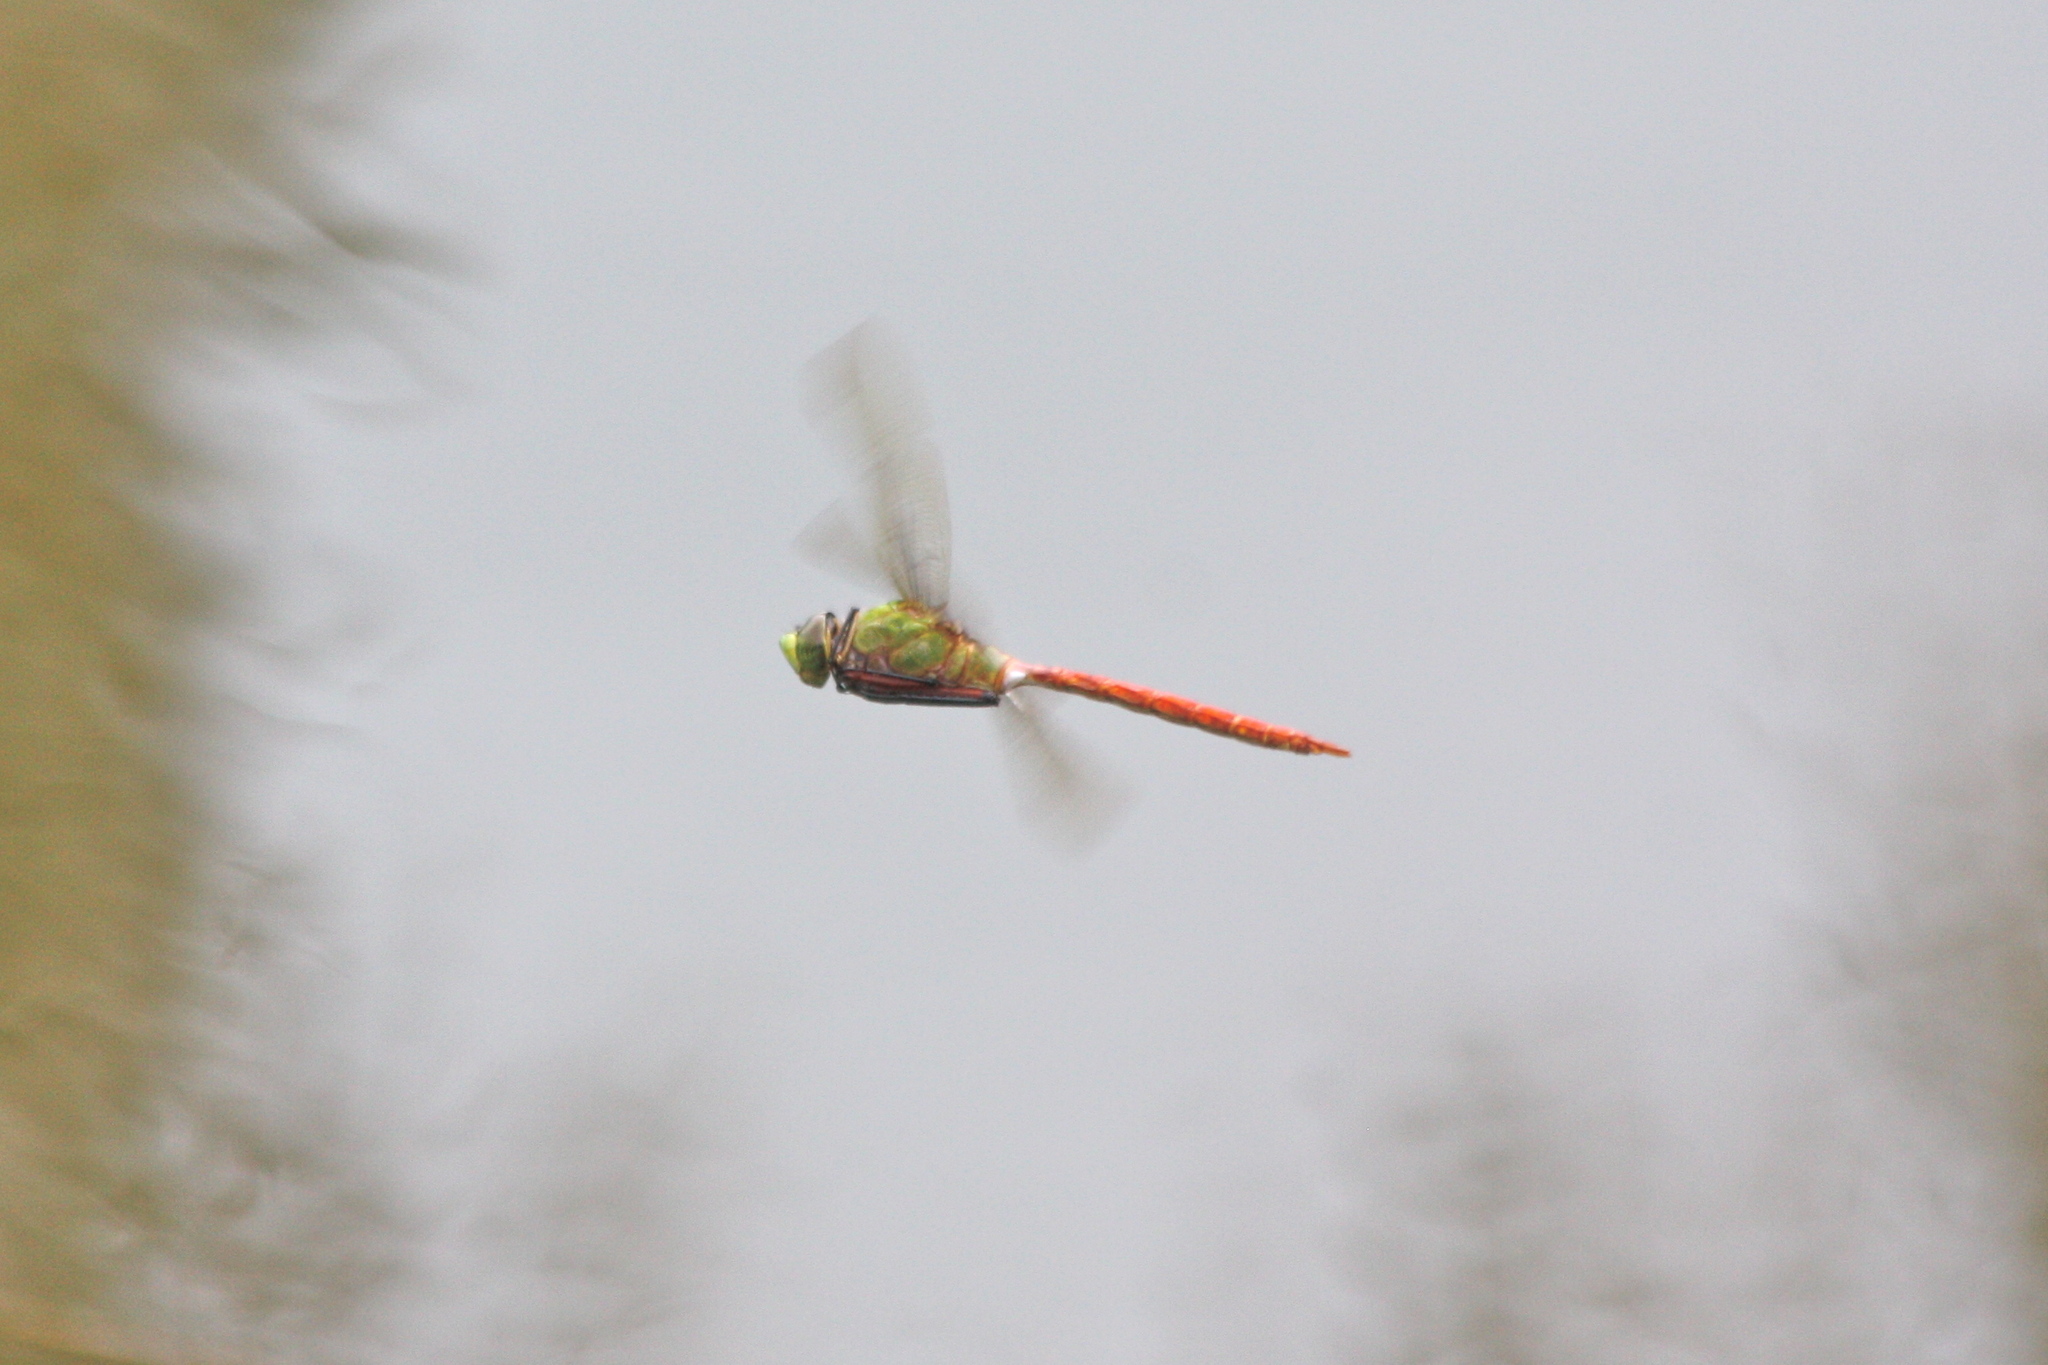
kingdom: Animalia
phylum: Arthropoda
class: Insecta
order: Odonata
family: Aeshnidae
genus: Anax
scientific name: Anax longipes
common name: Comet darner
